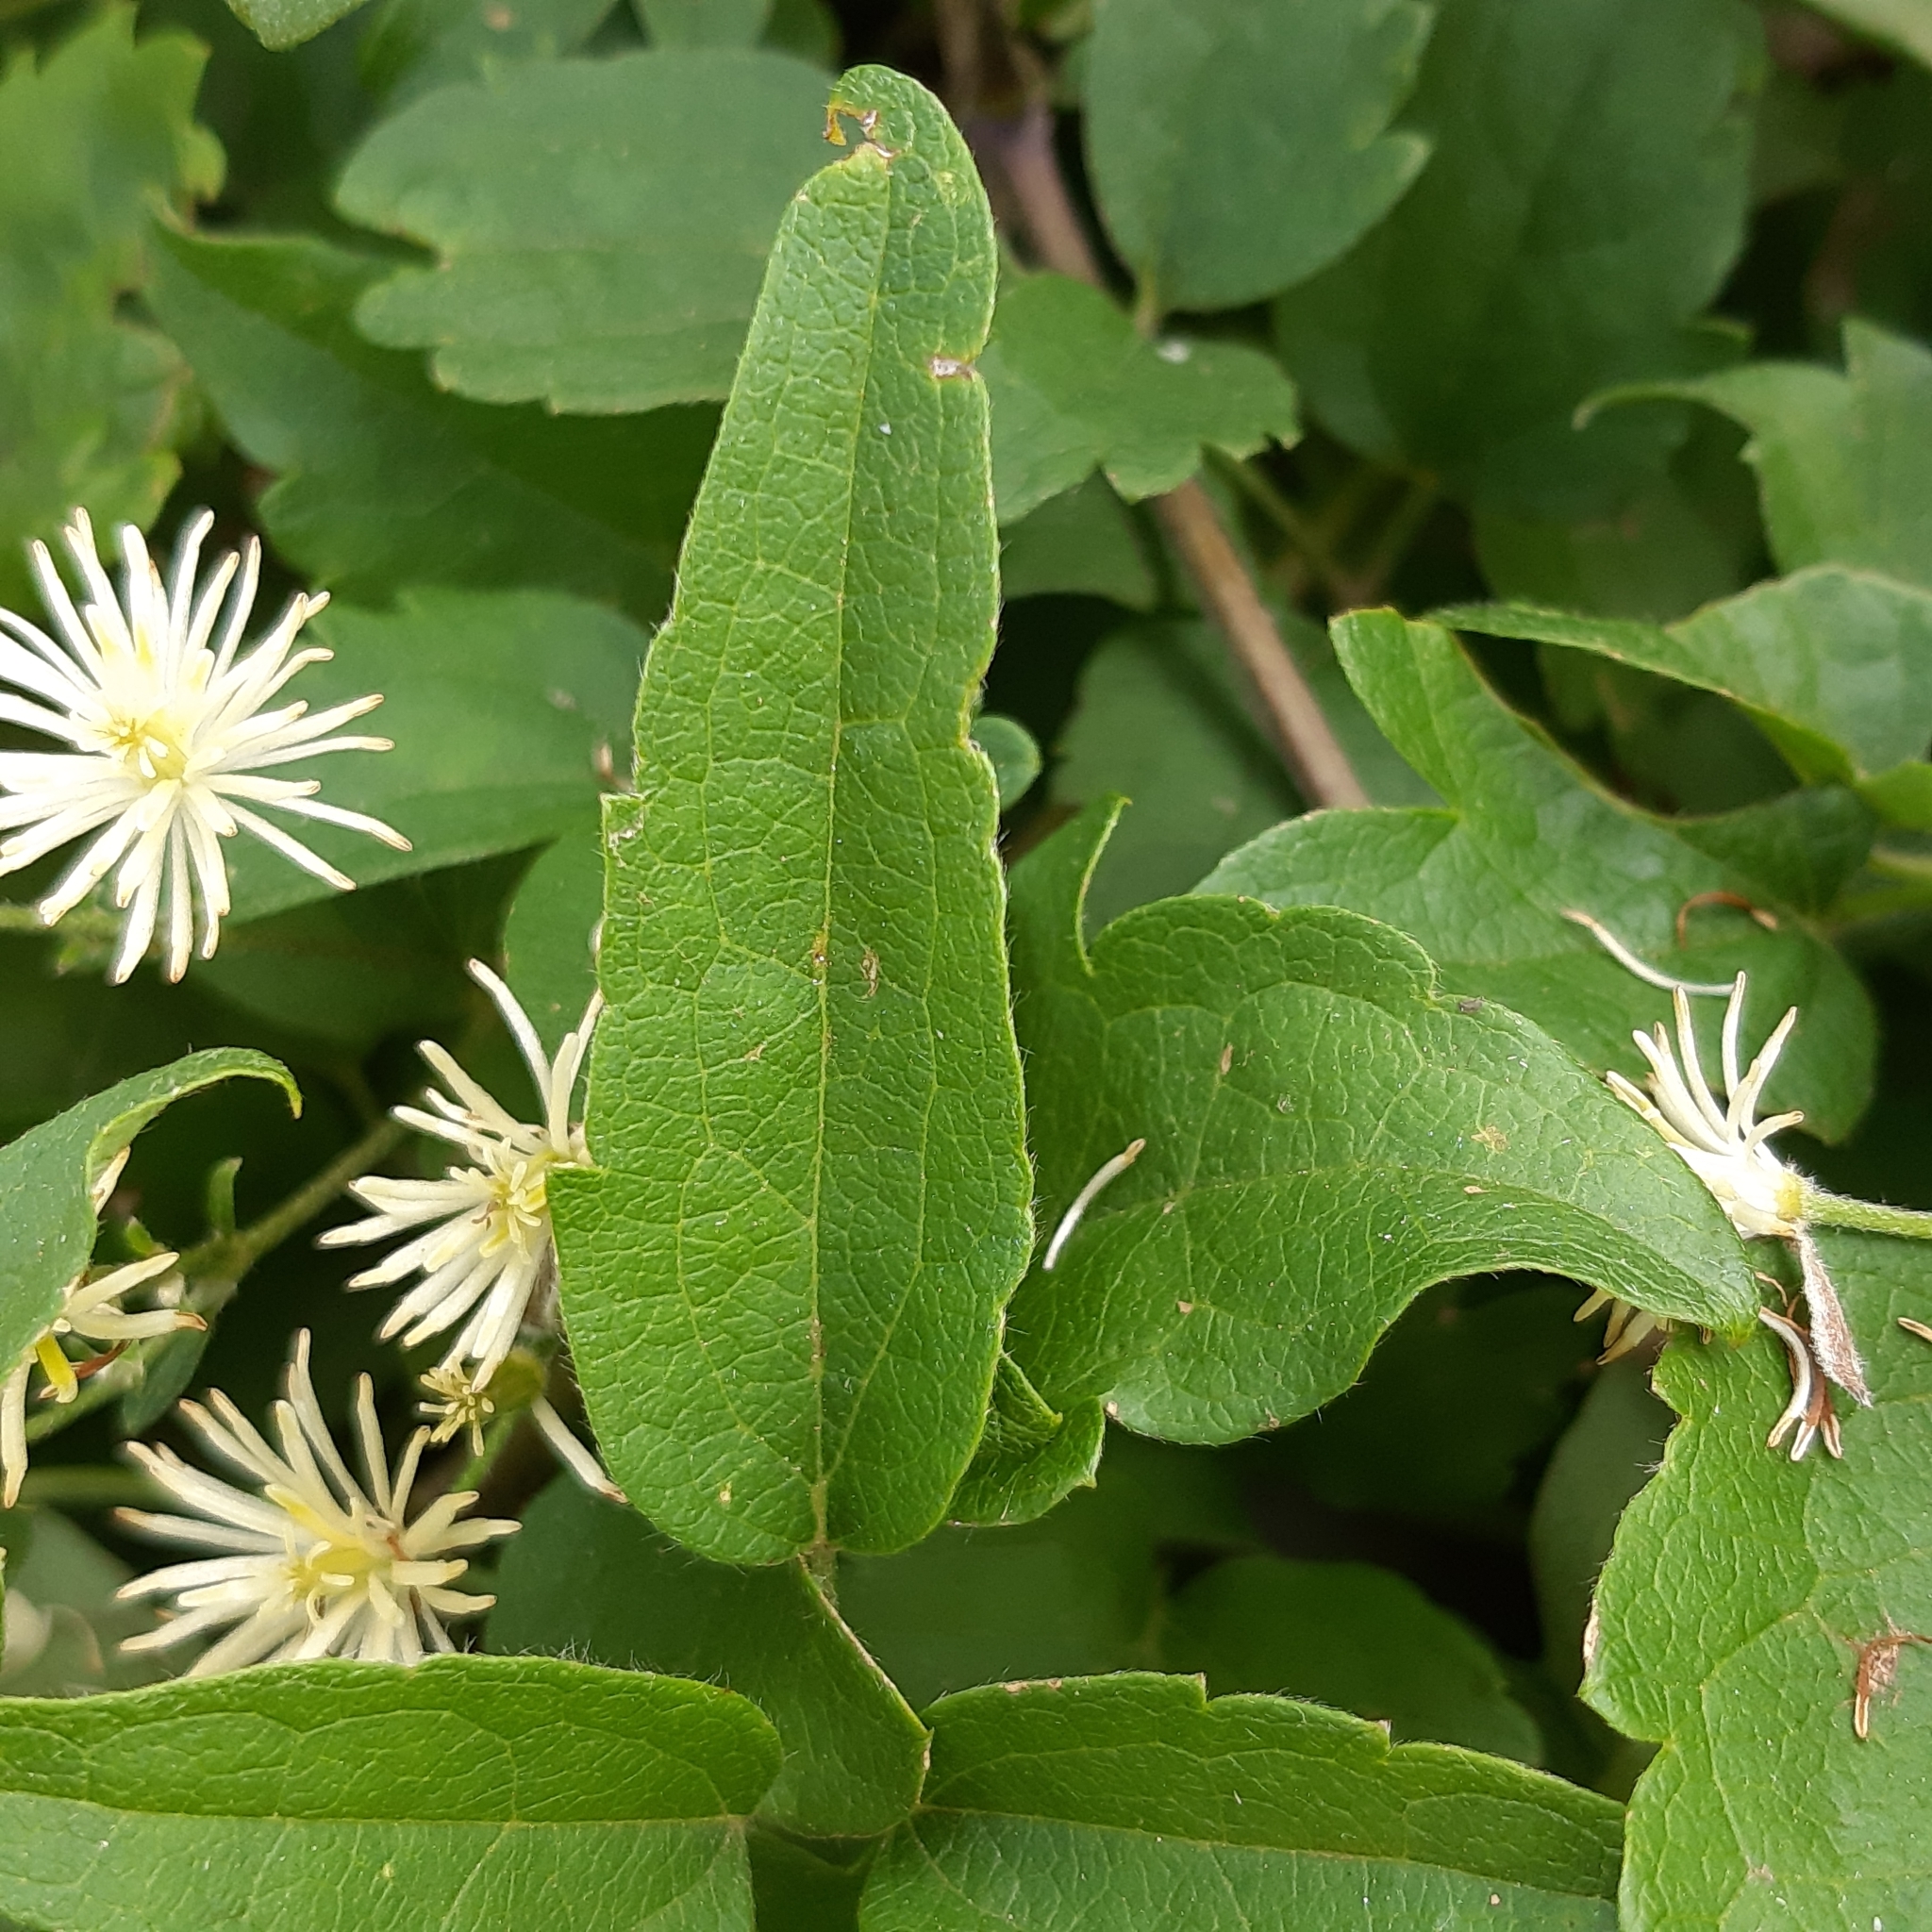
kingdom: Plantae
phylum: Tracheophyta
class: Magnoliopsida
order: Ranunculales
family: Ranunculaceae
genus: Clematis
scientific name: Clematis vitalba
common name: Evergreen clematis
